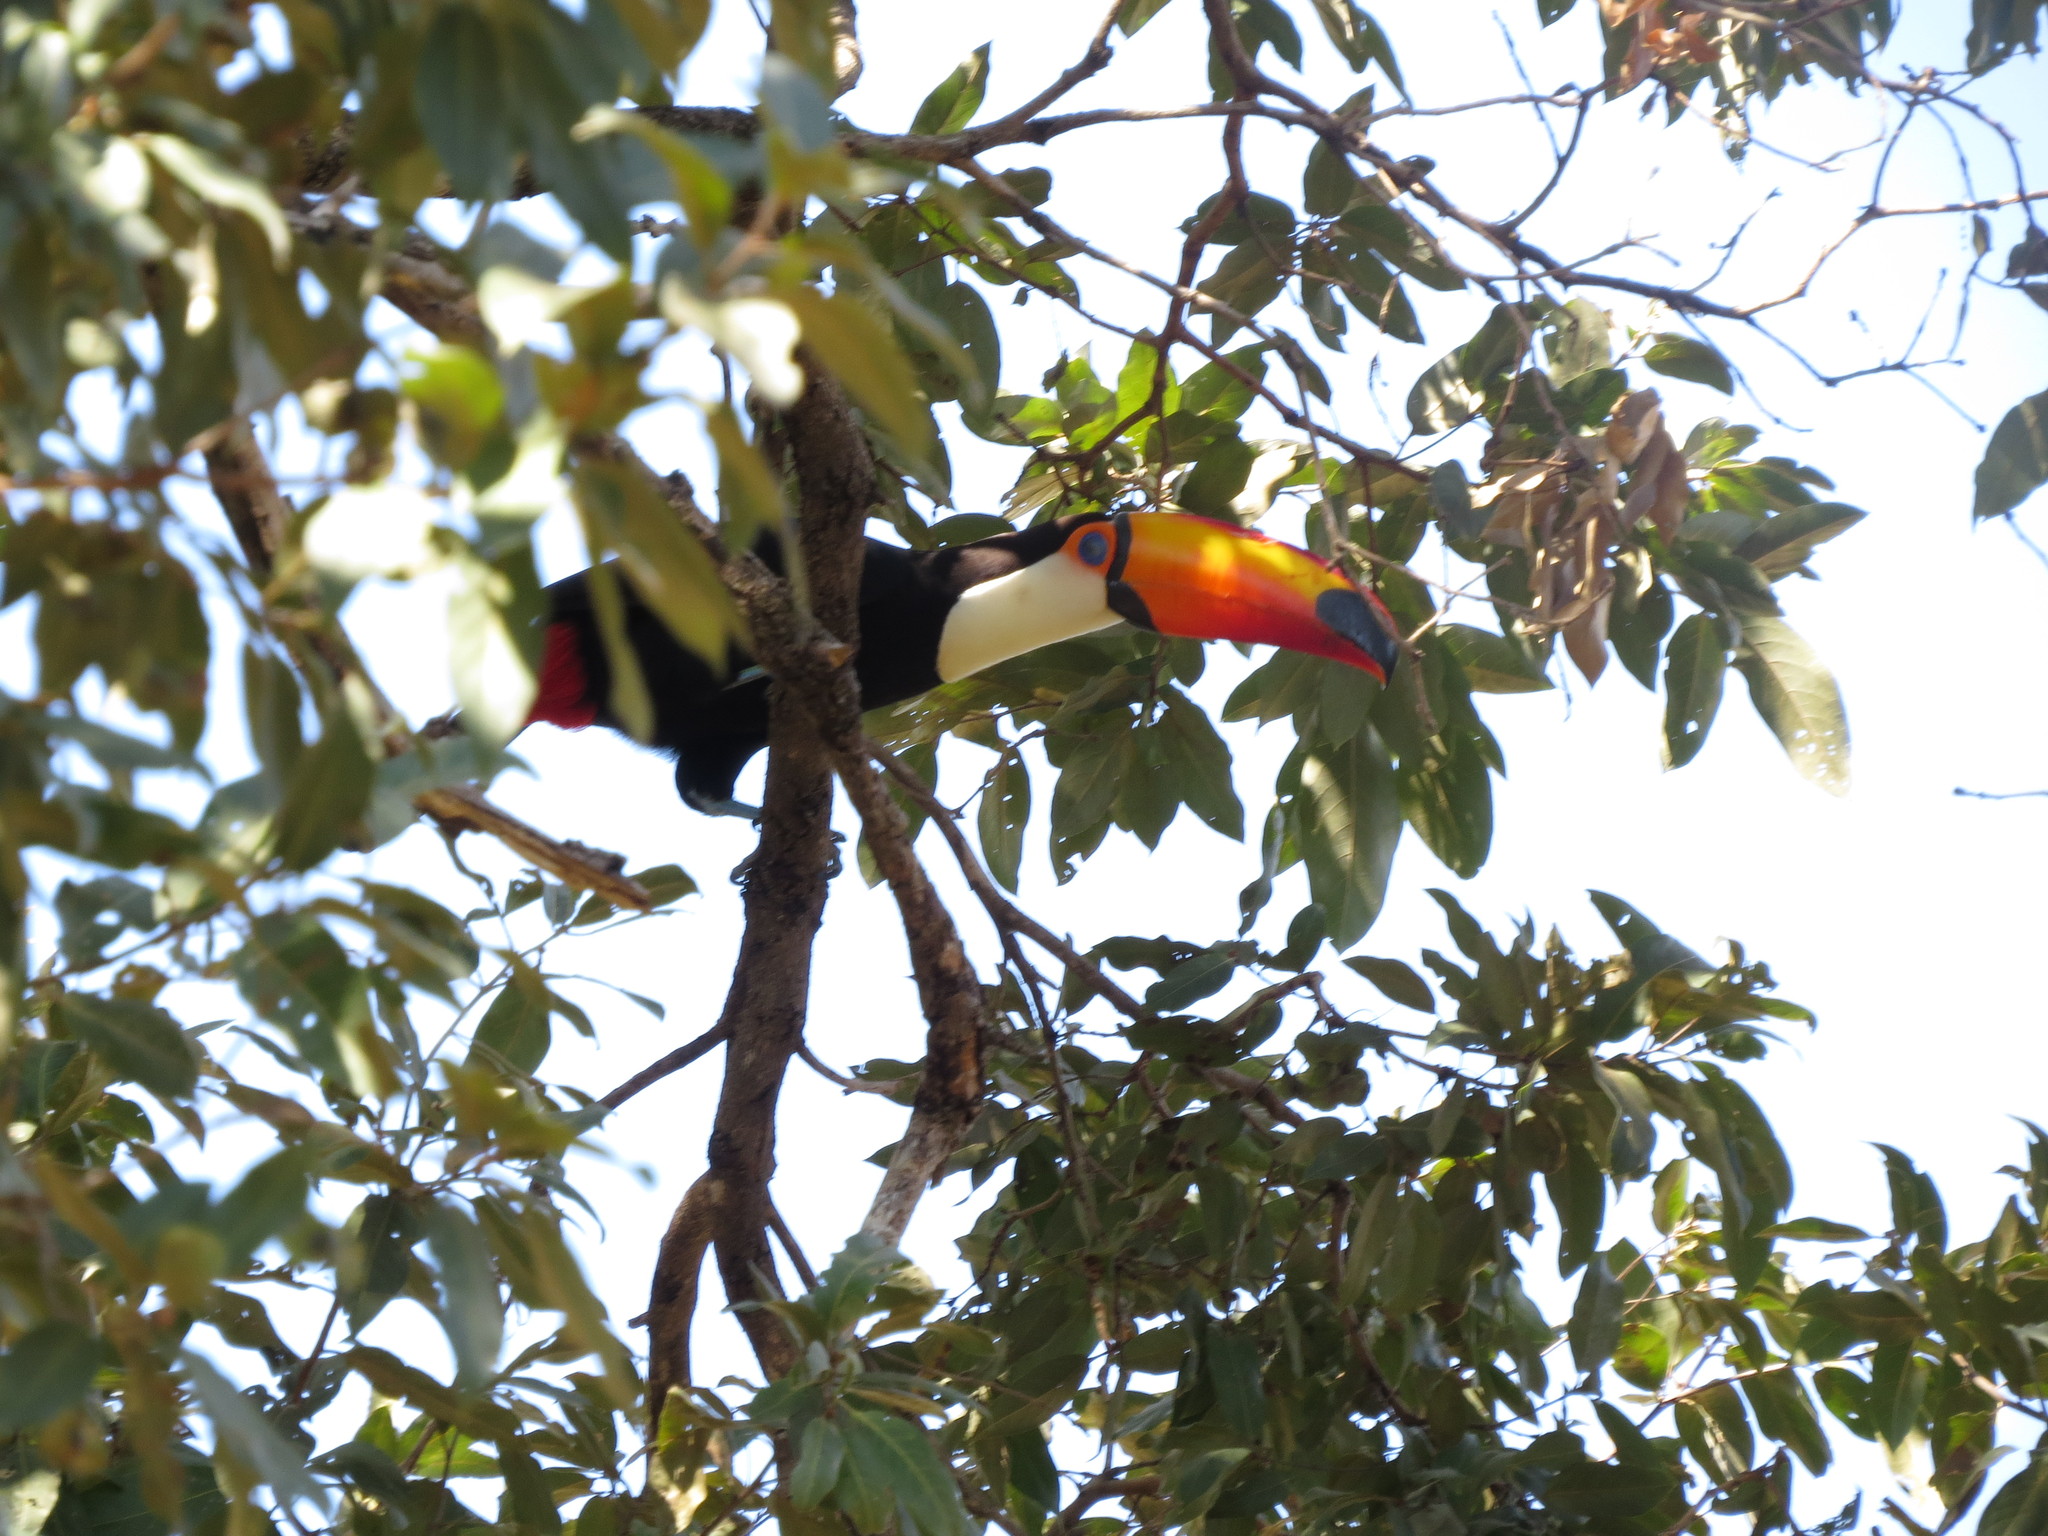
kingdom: Animalia
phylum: Chordata
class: Aves
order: Piciformes
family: Ramphastidae
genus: Ramphastos
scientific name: Ramphastos toco
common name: Toco toucan
